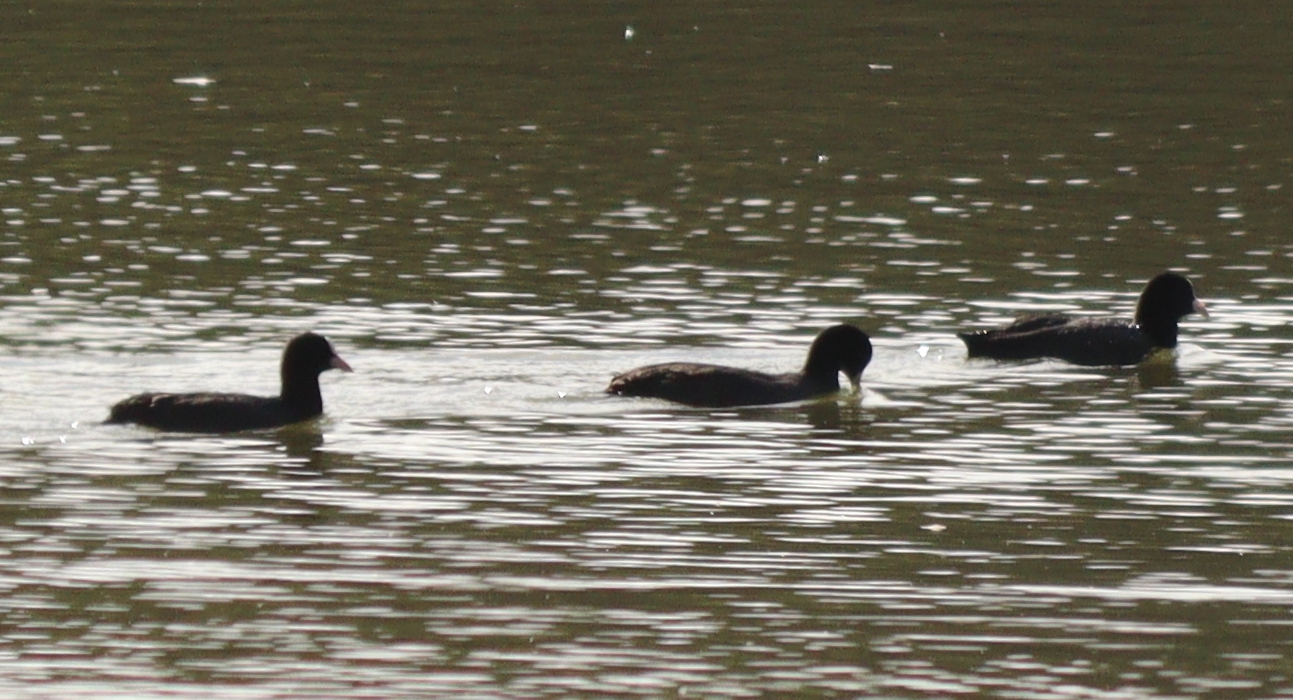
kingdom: Animalia
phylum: Chordata
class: Aves
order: Gruiformes
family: Rallidae
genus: Fulica
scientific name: Fulica atra
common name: Eurasian coot
